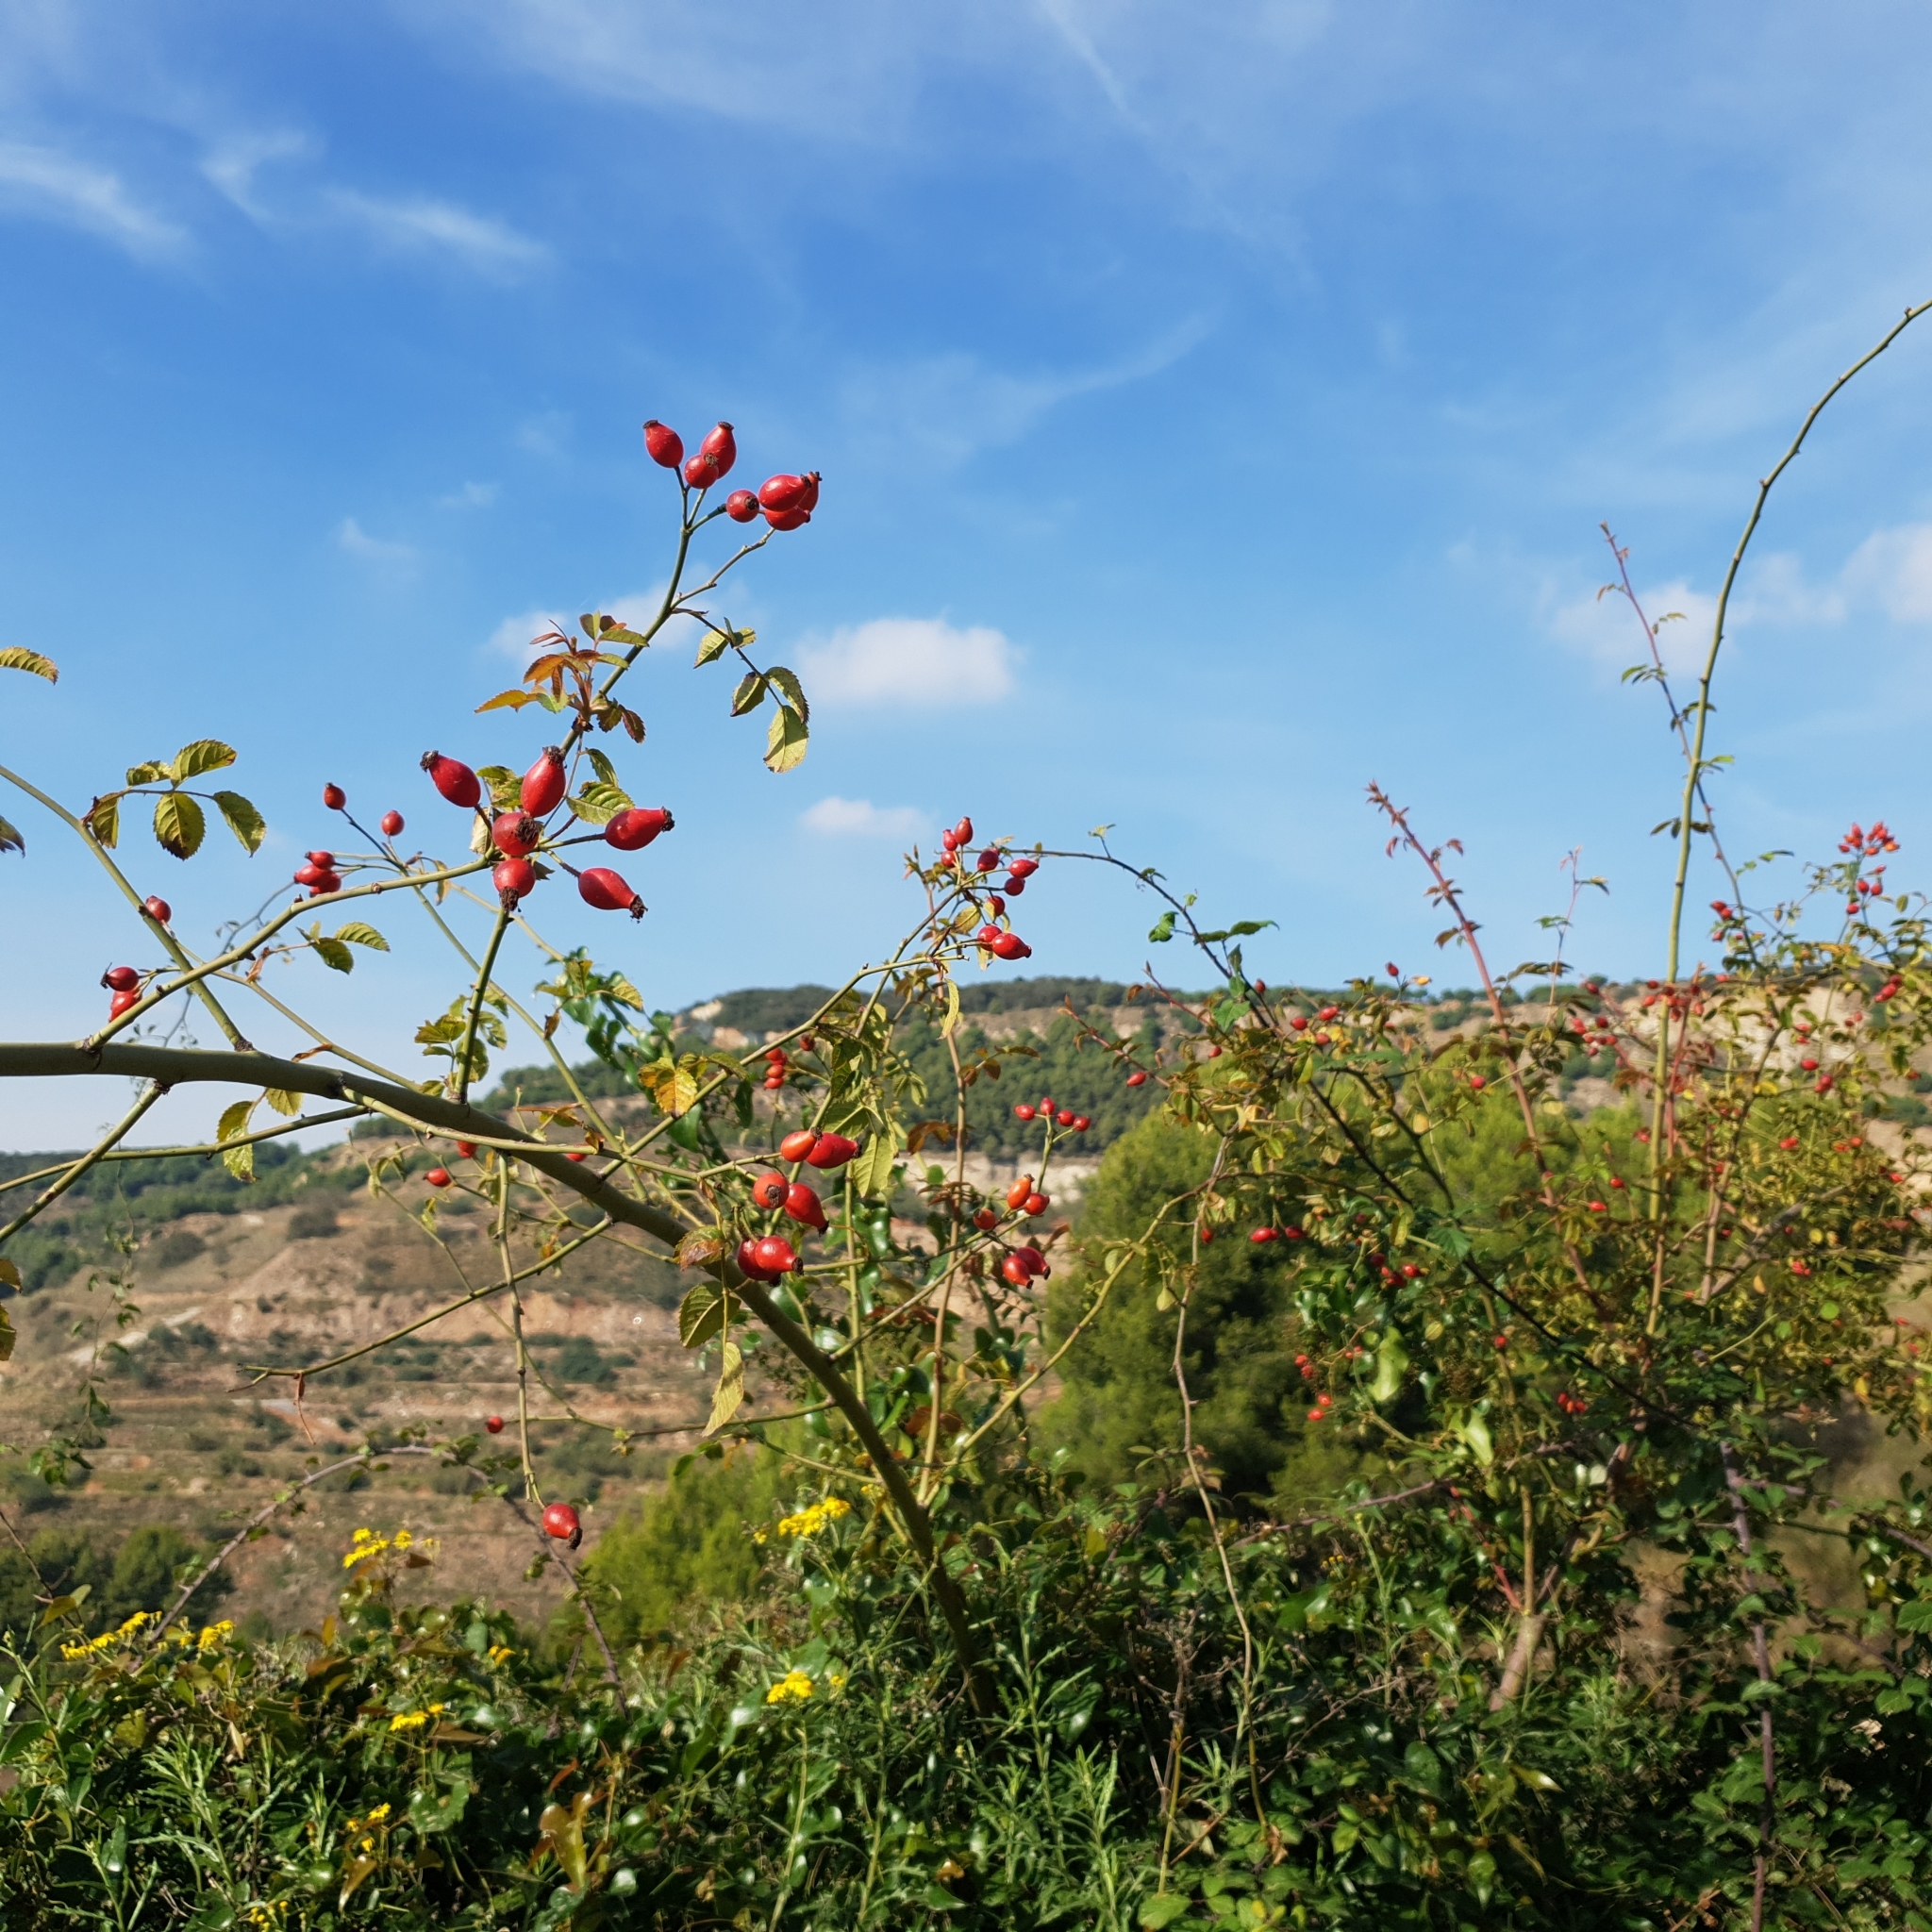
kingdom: Plantae
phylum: Tracheophyta
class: Magnoliopsida
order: Rosales
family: Rosaceae
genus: Rosa
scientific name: Rosa canina
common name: Dog rose
